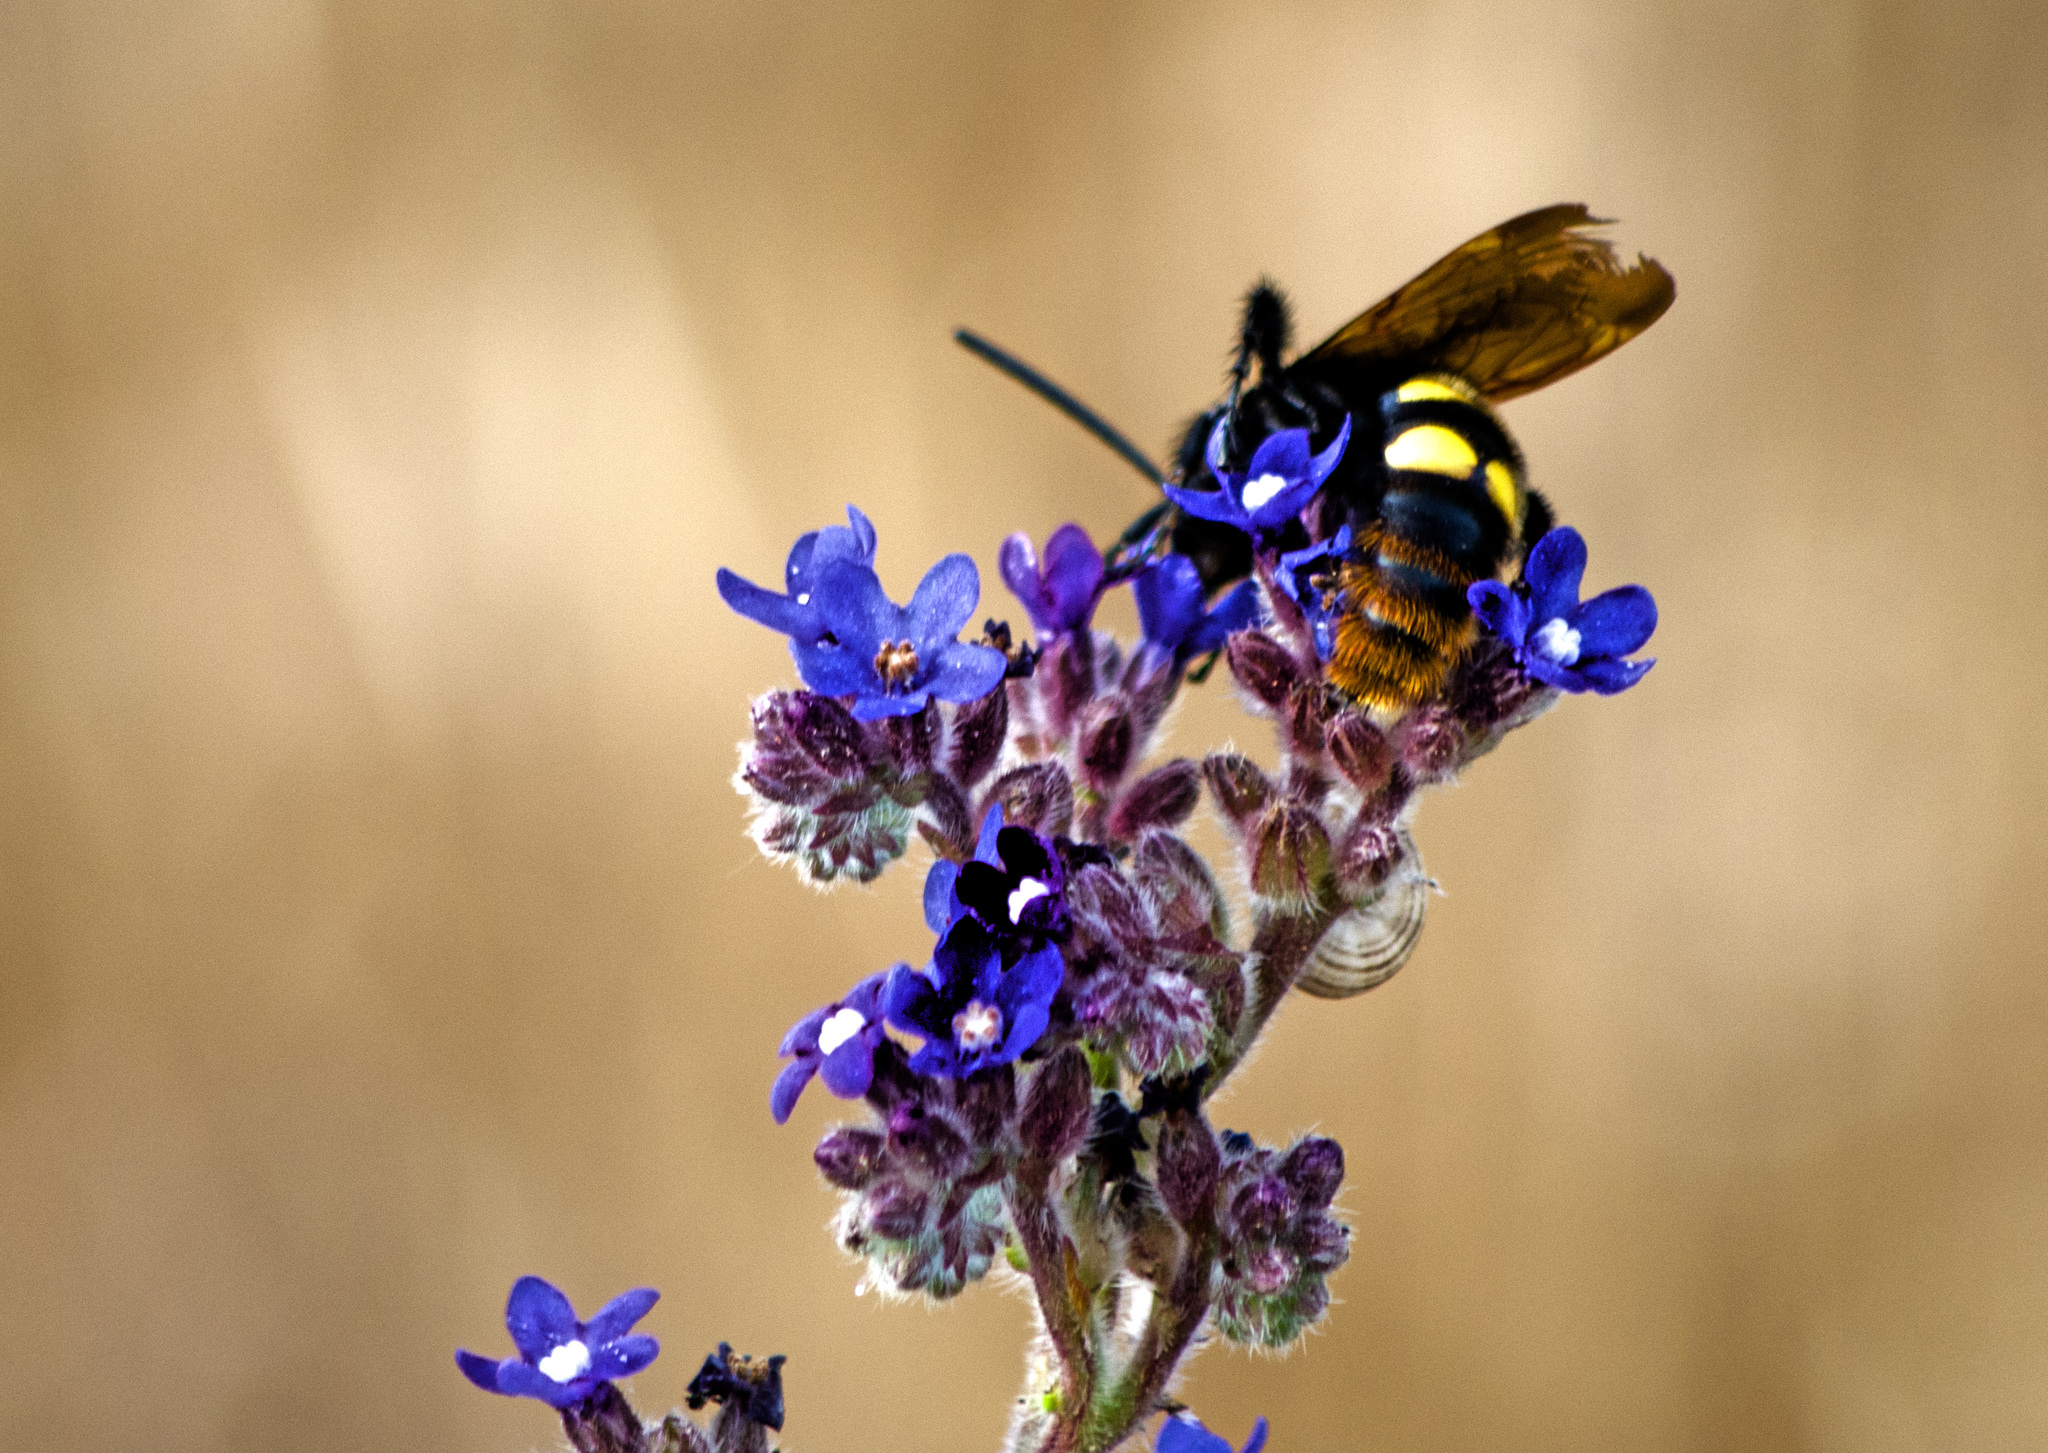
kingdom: Animalia
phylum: Arthropoda
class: Insecta
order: Hymenoptera
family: Scoliidae
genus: Megascolia
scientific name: Megascolia maculata
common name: Mammoth wasp
